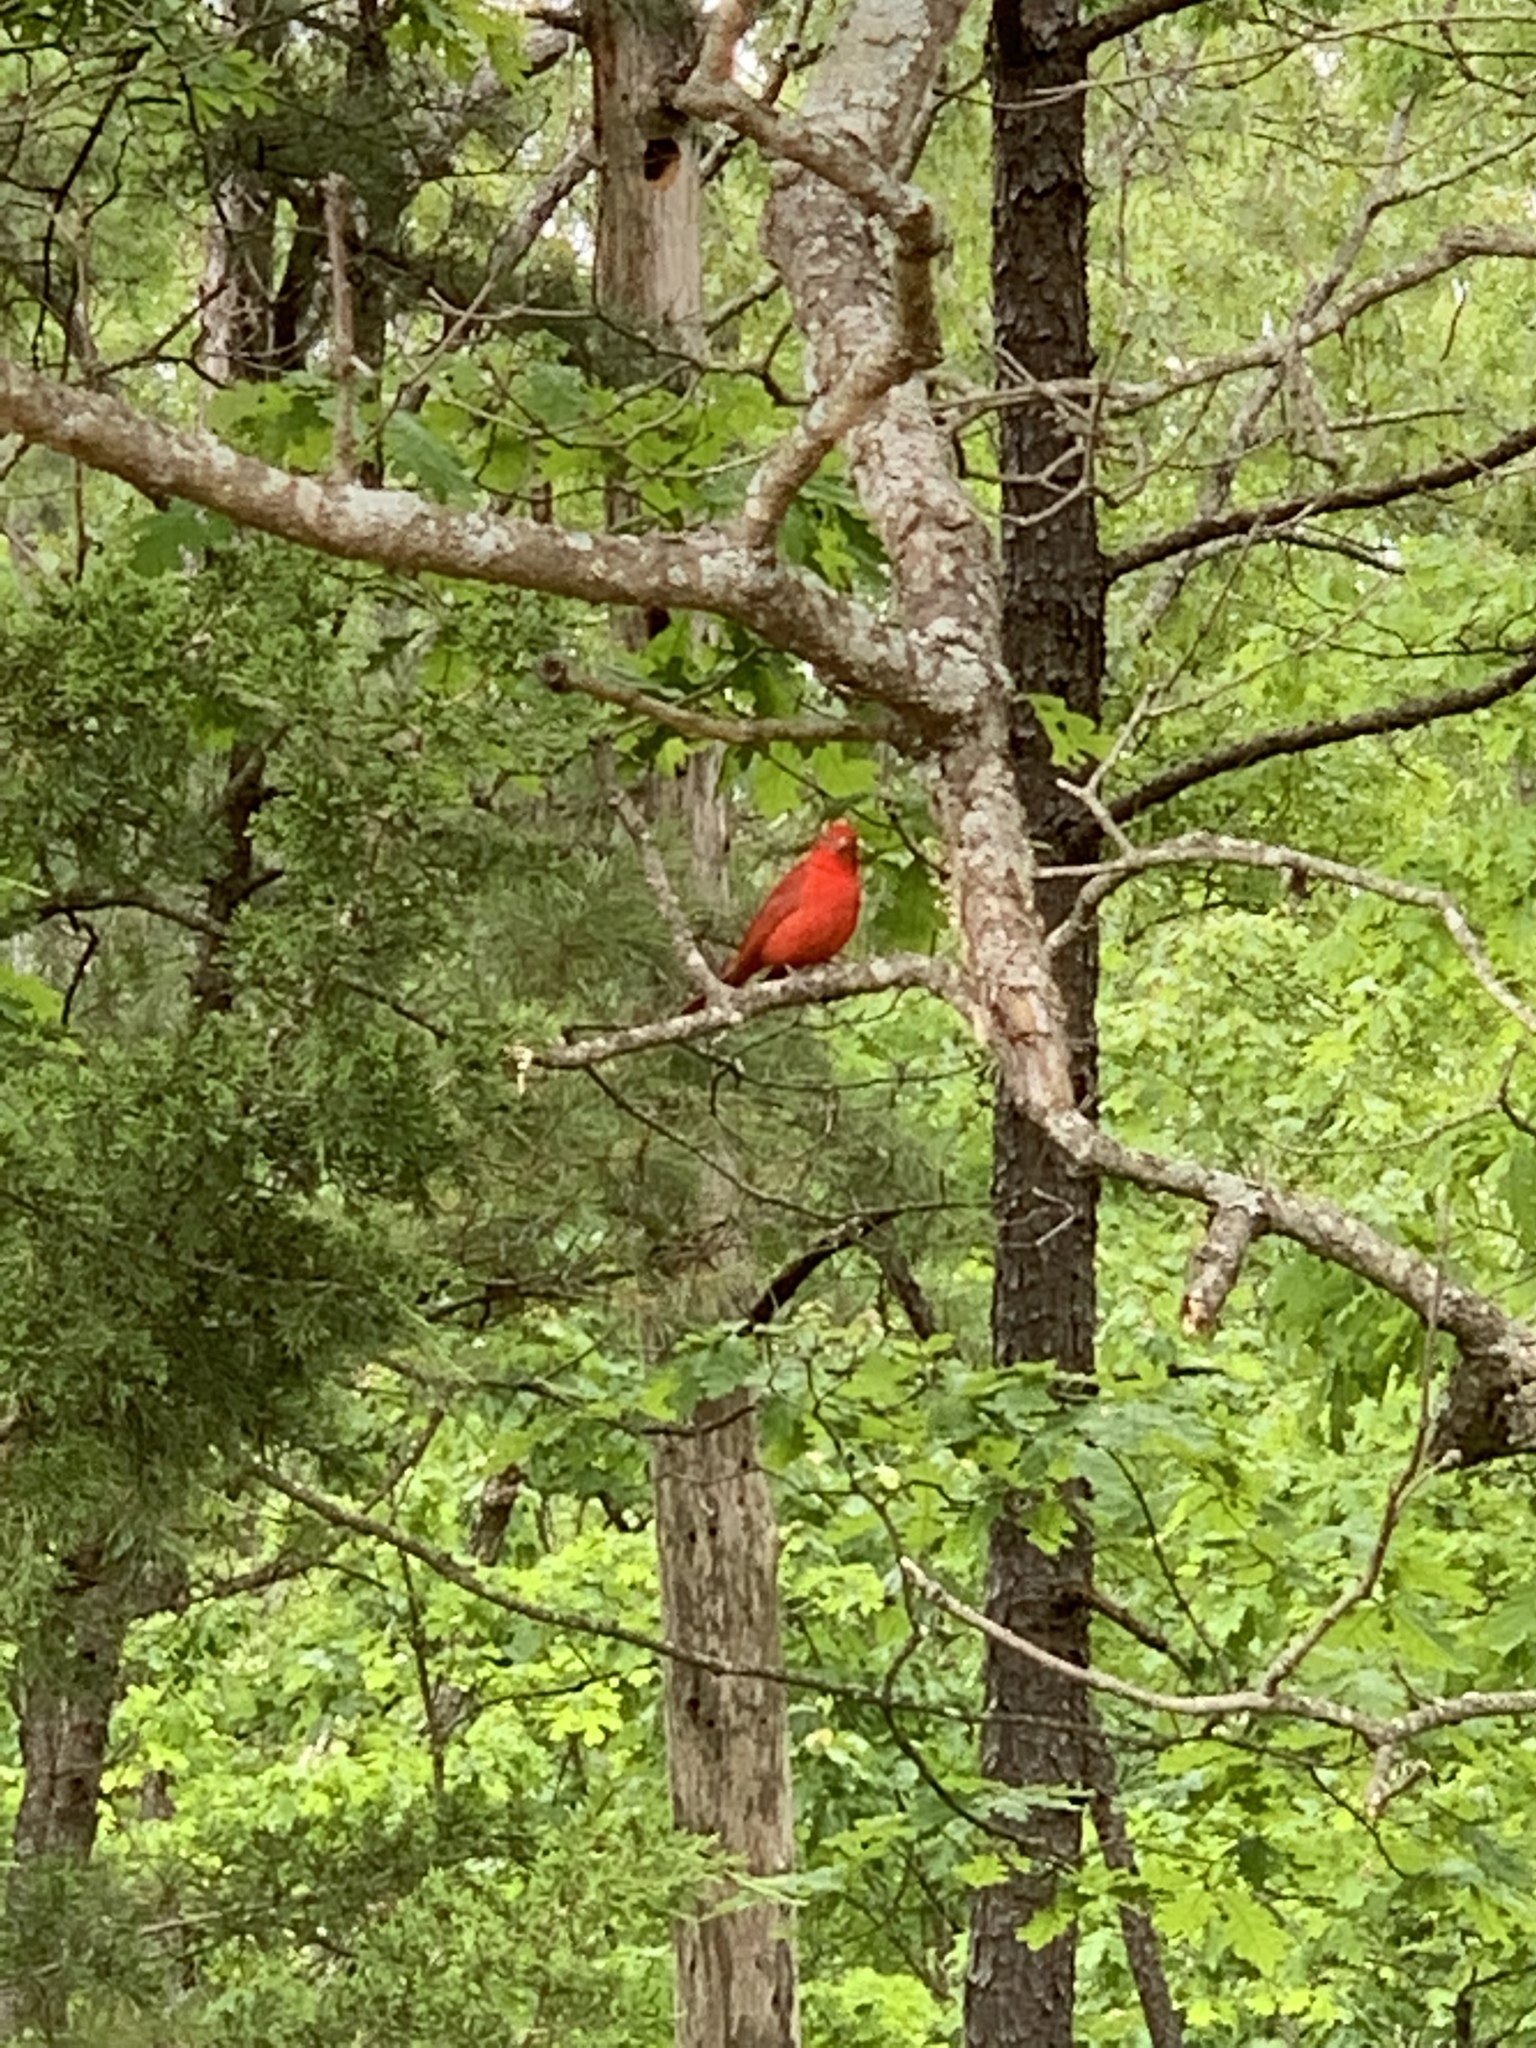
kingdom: Animalia
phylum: Chordata
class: Aves
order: Passeriformes
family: Cardinalidae
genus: Piranga
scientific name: Piranga rubra
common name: Summer tanager
